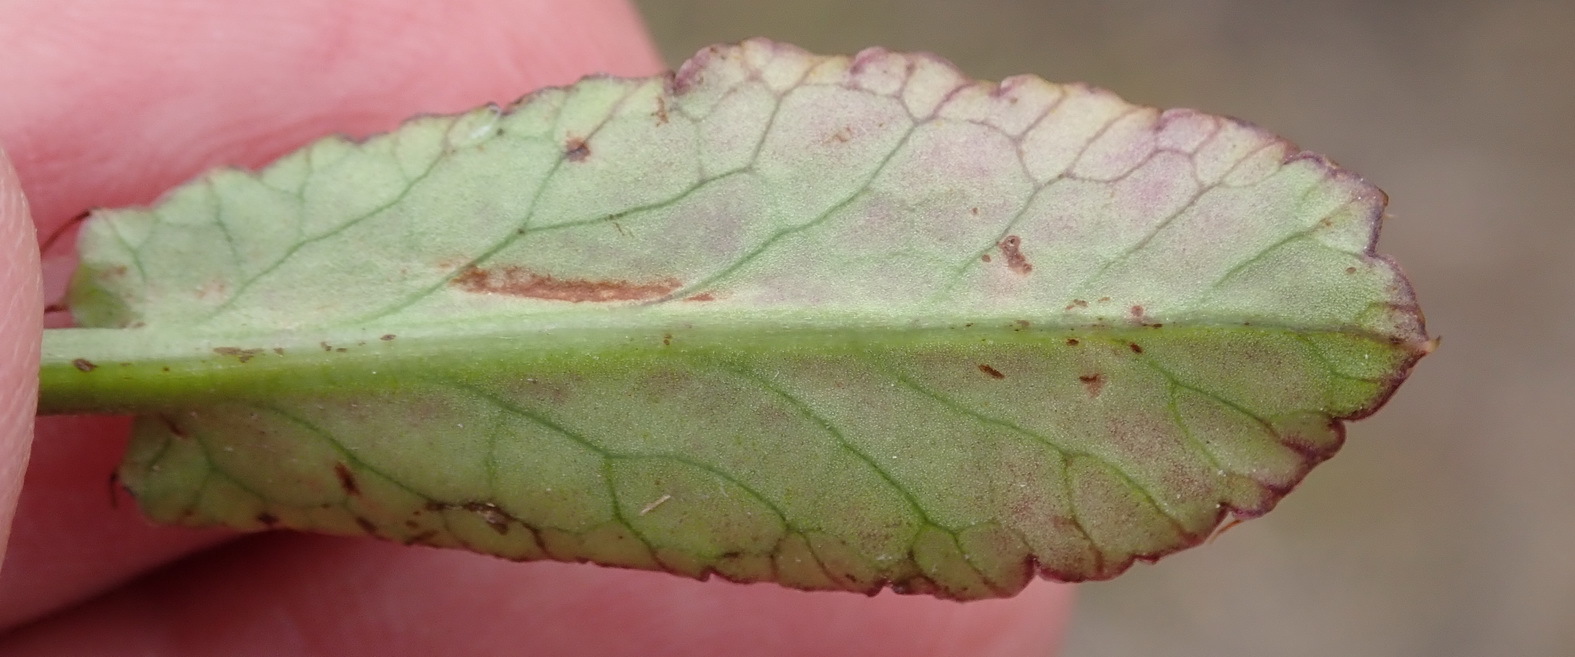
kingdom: Plantae
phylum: Tracheophyta
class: Magnoliopsida
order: Apiales
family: Apiaceae
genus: Alepidea
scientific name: Alepidea capensis
